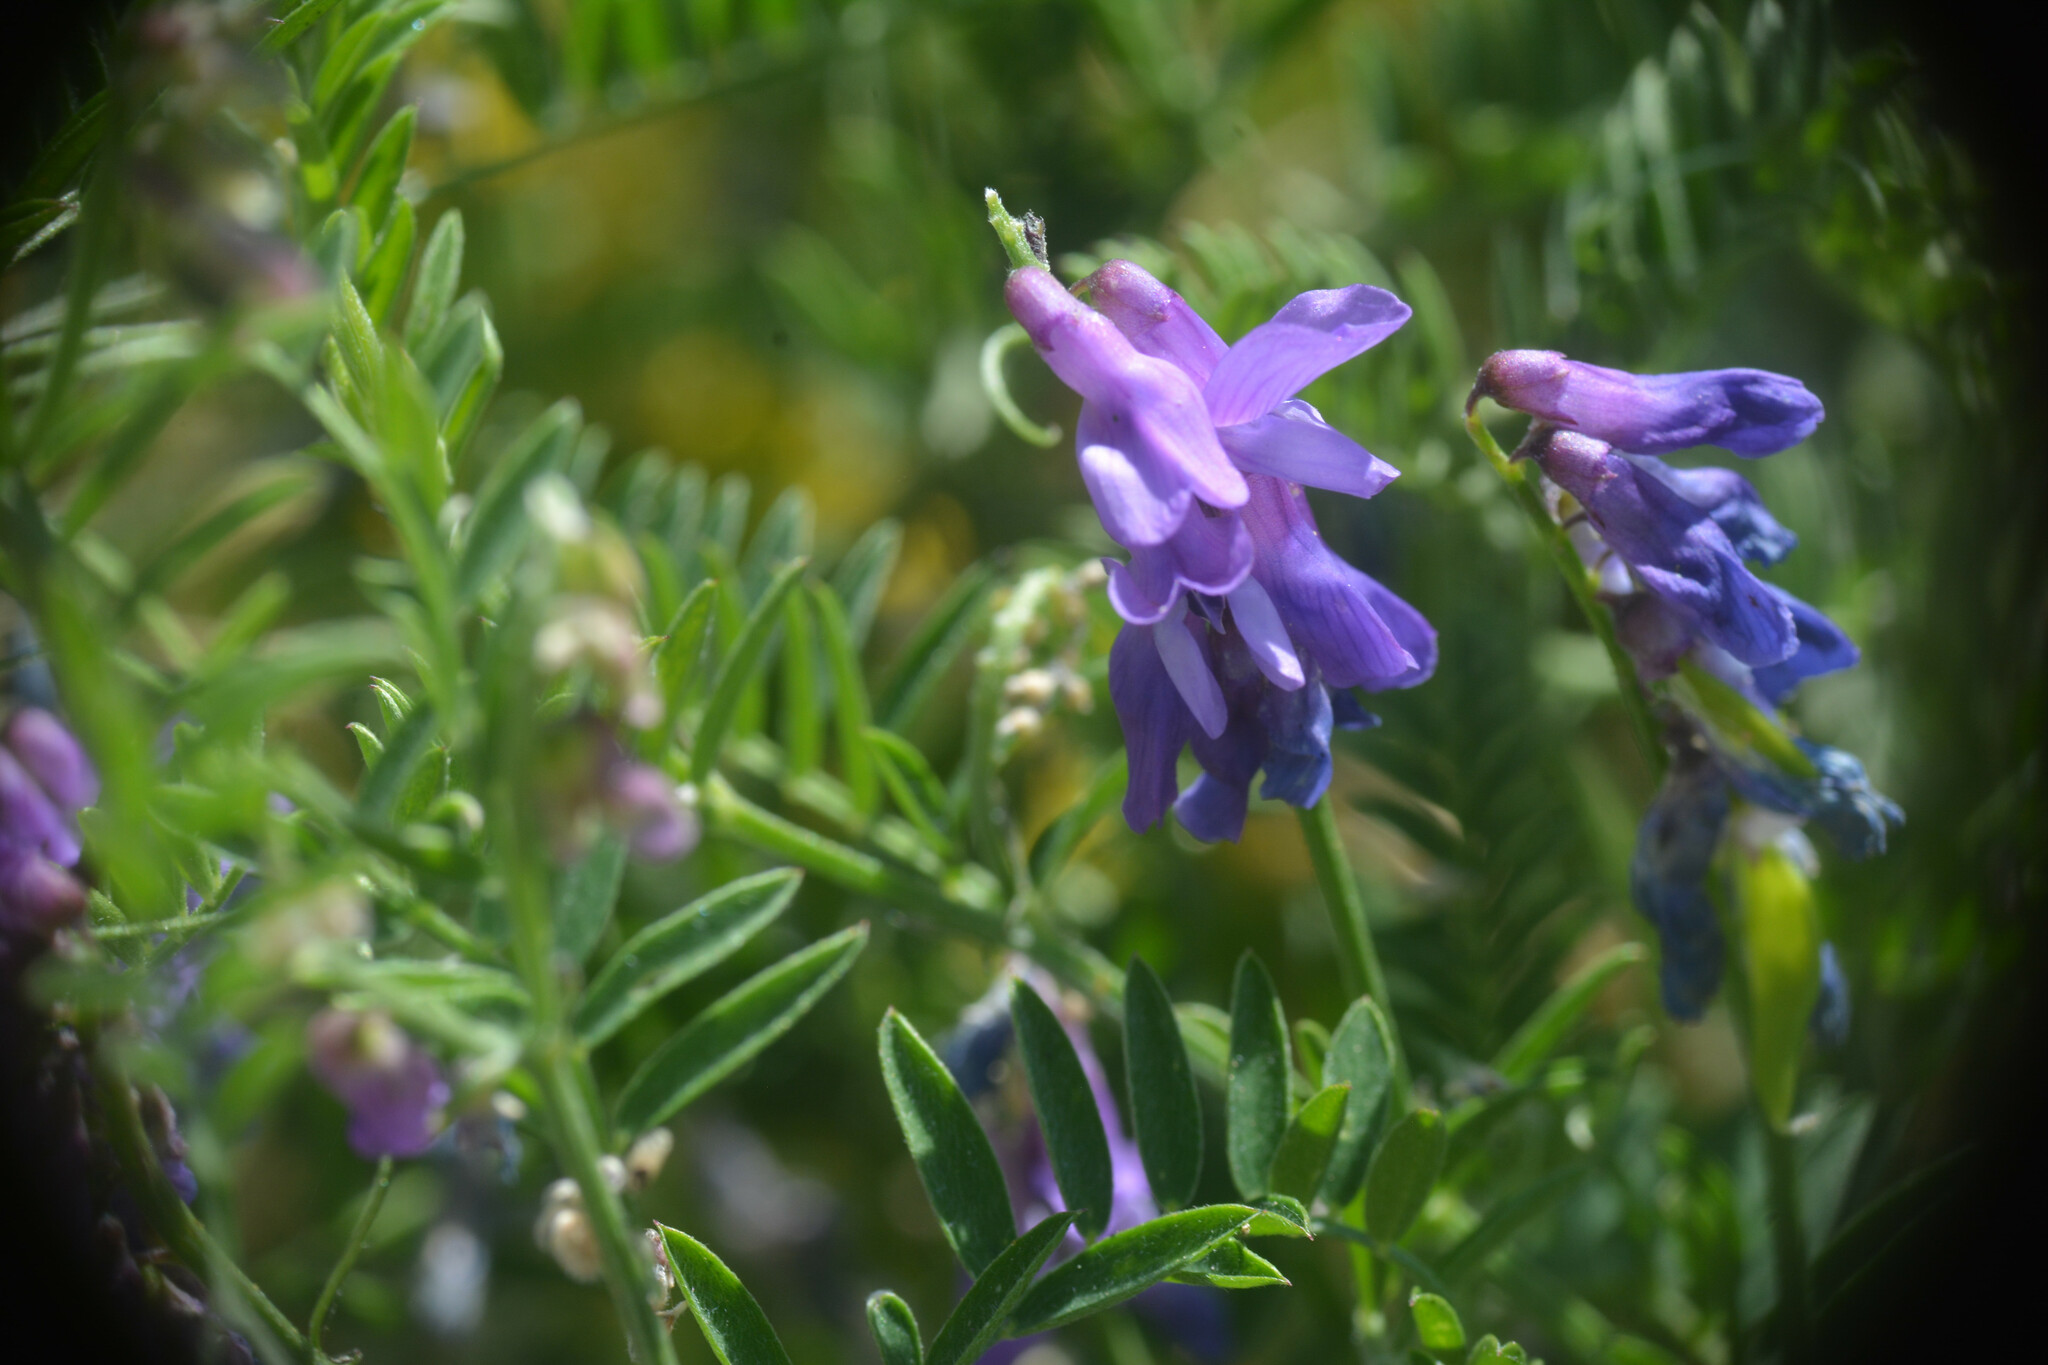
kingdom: Plantae
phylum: Tracheophyta
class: Magnoliopsida
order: Fabales
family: Fabaceae
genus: Vicia
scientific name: Vicia cracca
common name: Bird vetch
